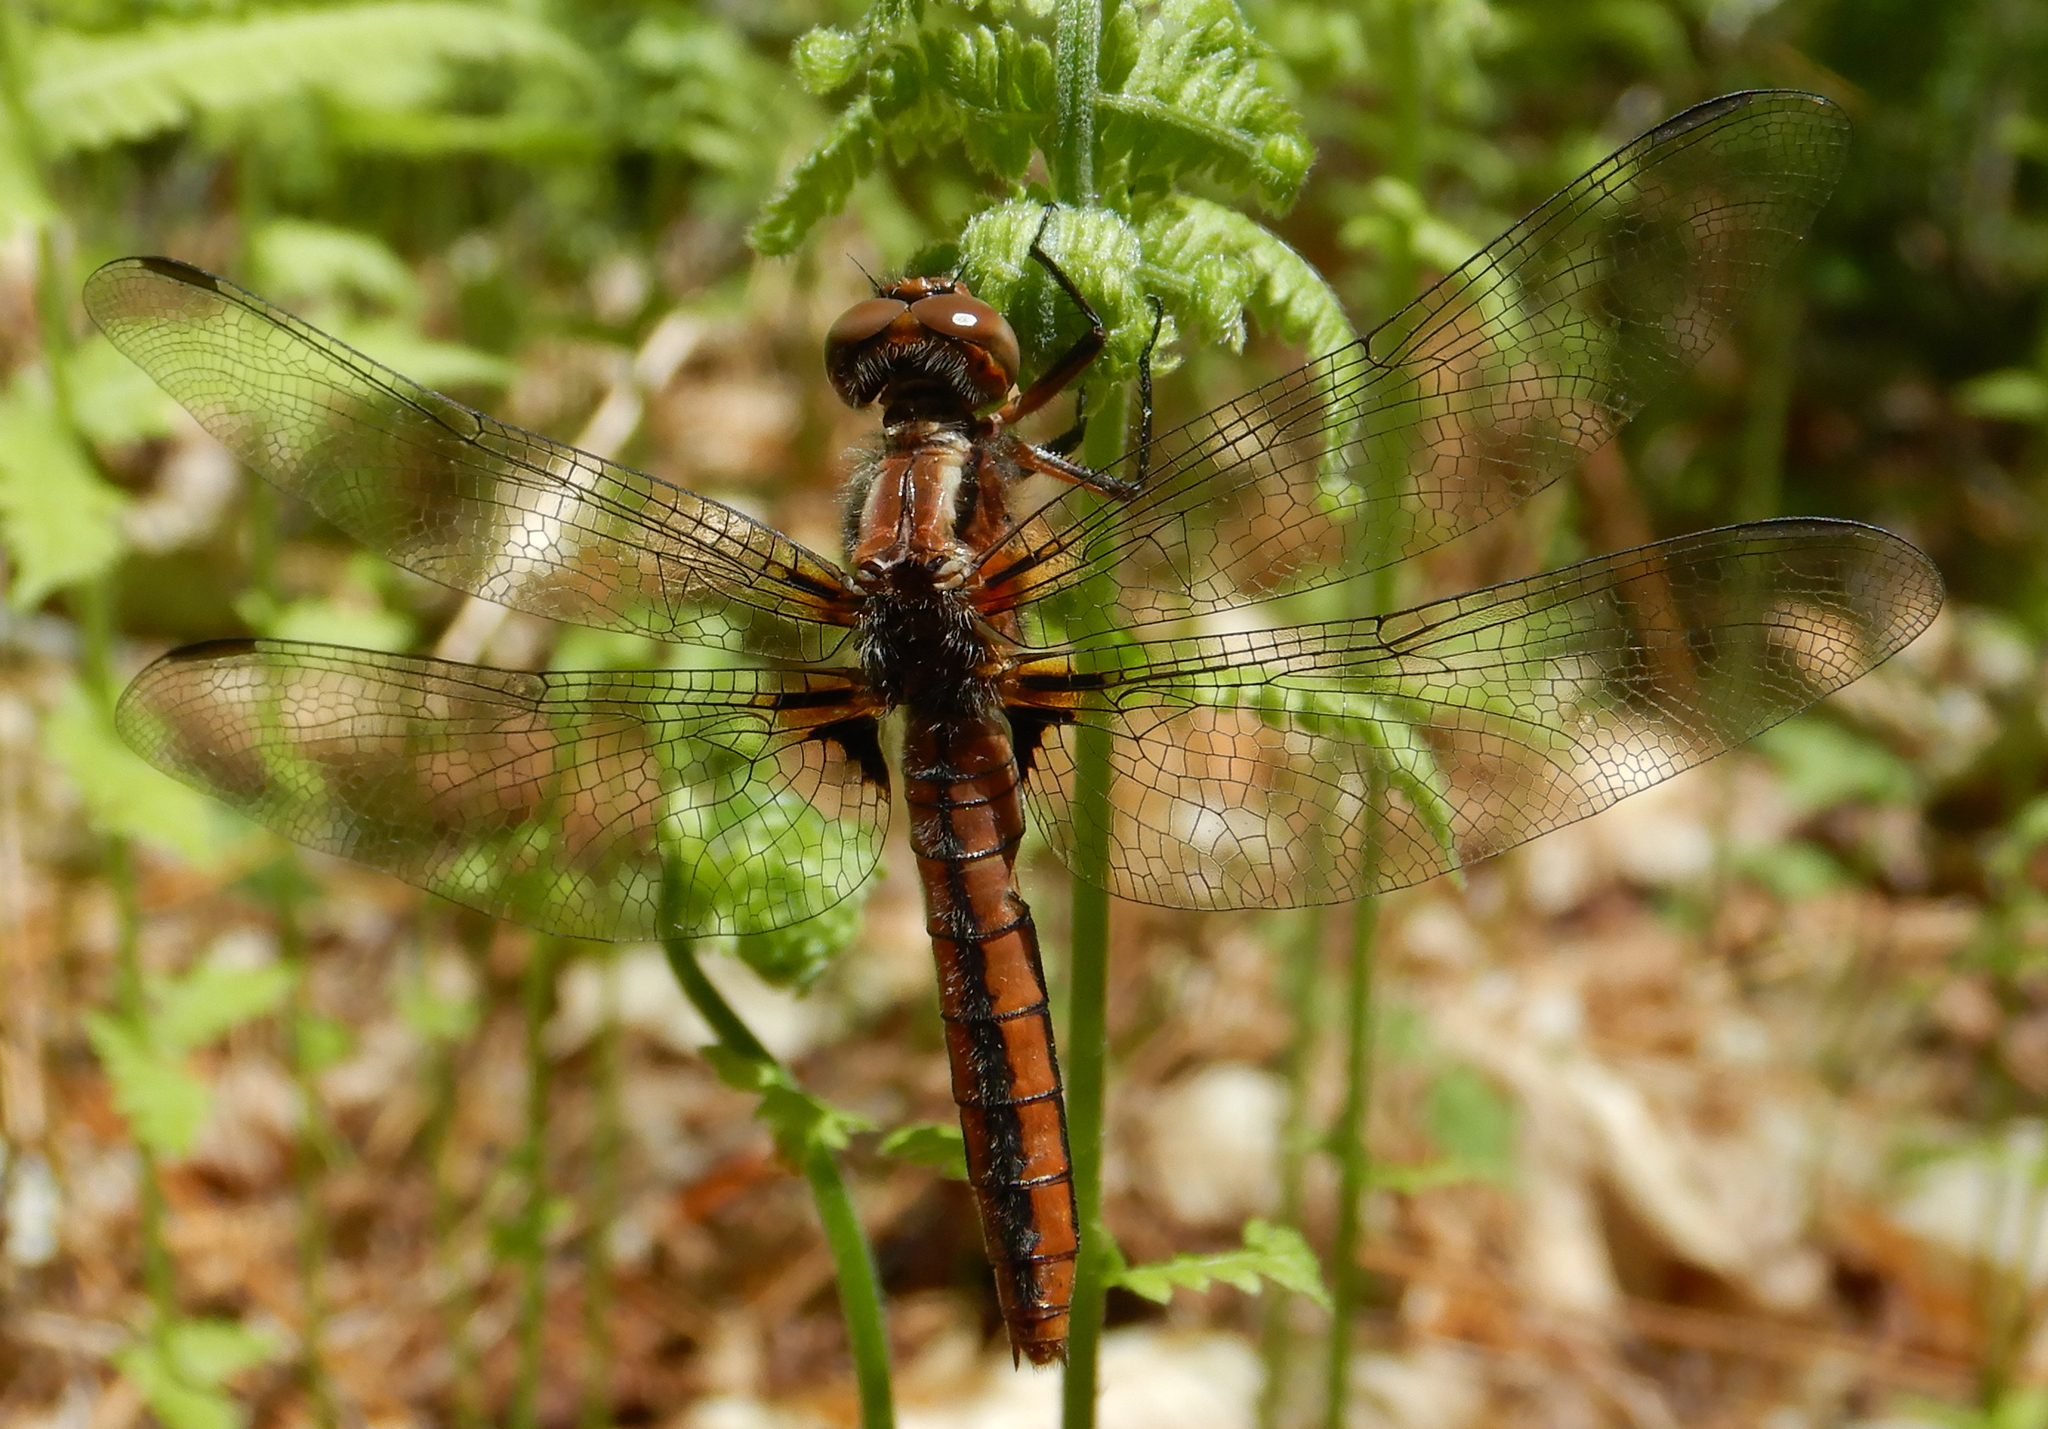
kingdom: Animalia
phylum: Arthropoda
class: Insecta
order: Odonata
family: Libellulidae
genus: Ladona
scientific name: Ladona julia
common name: Chalk-fronted corporal
